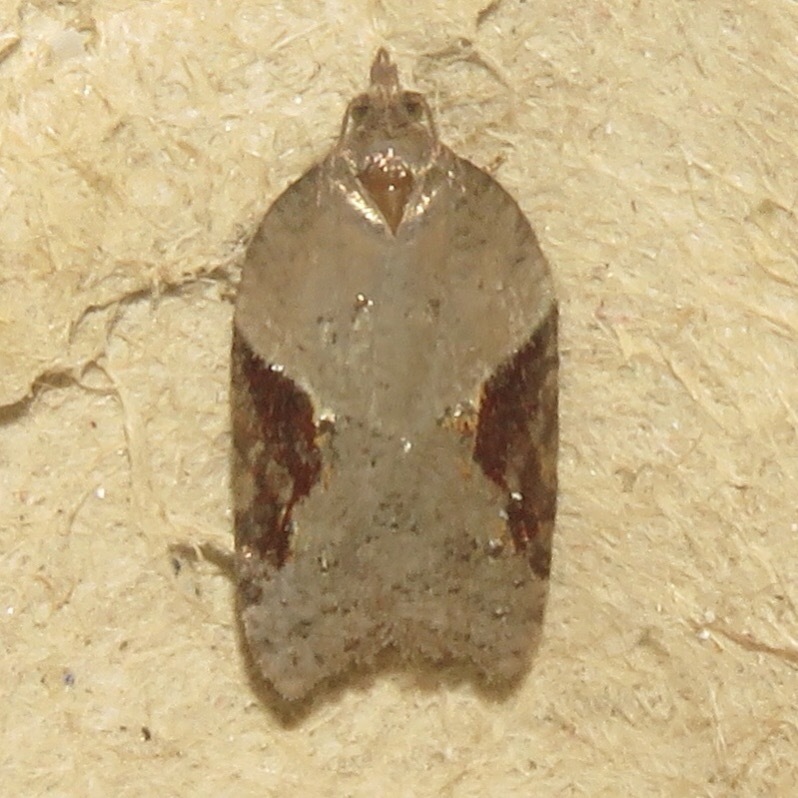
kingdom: Animalia
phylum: Arthropoda
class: Insecta
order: Lepidoptera
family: Tortricidae
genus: Acleris
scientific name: Acleris macdunnoughi
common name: Macdunnough's acleris
